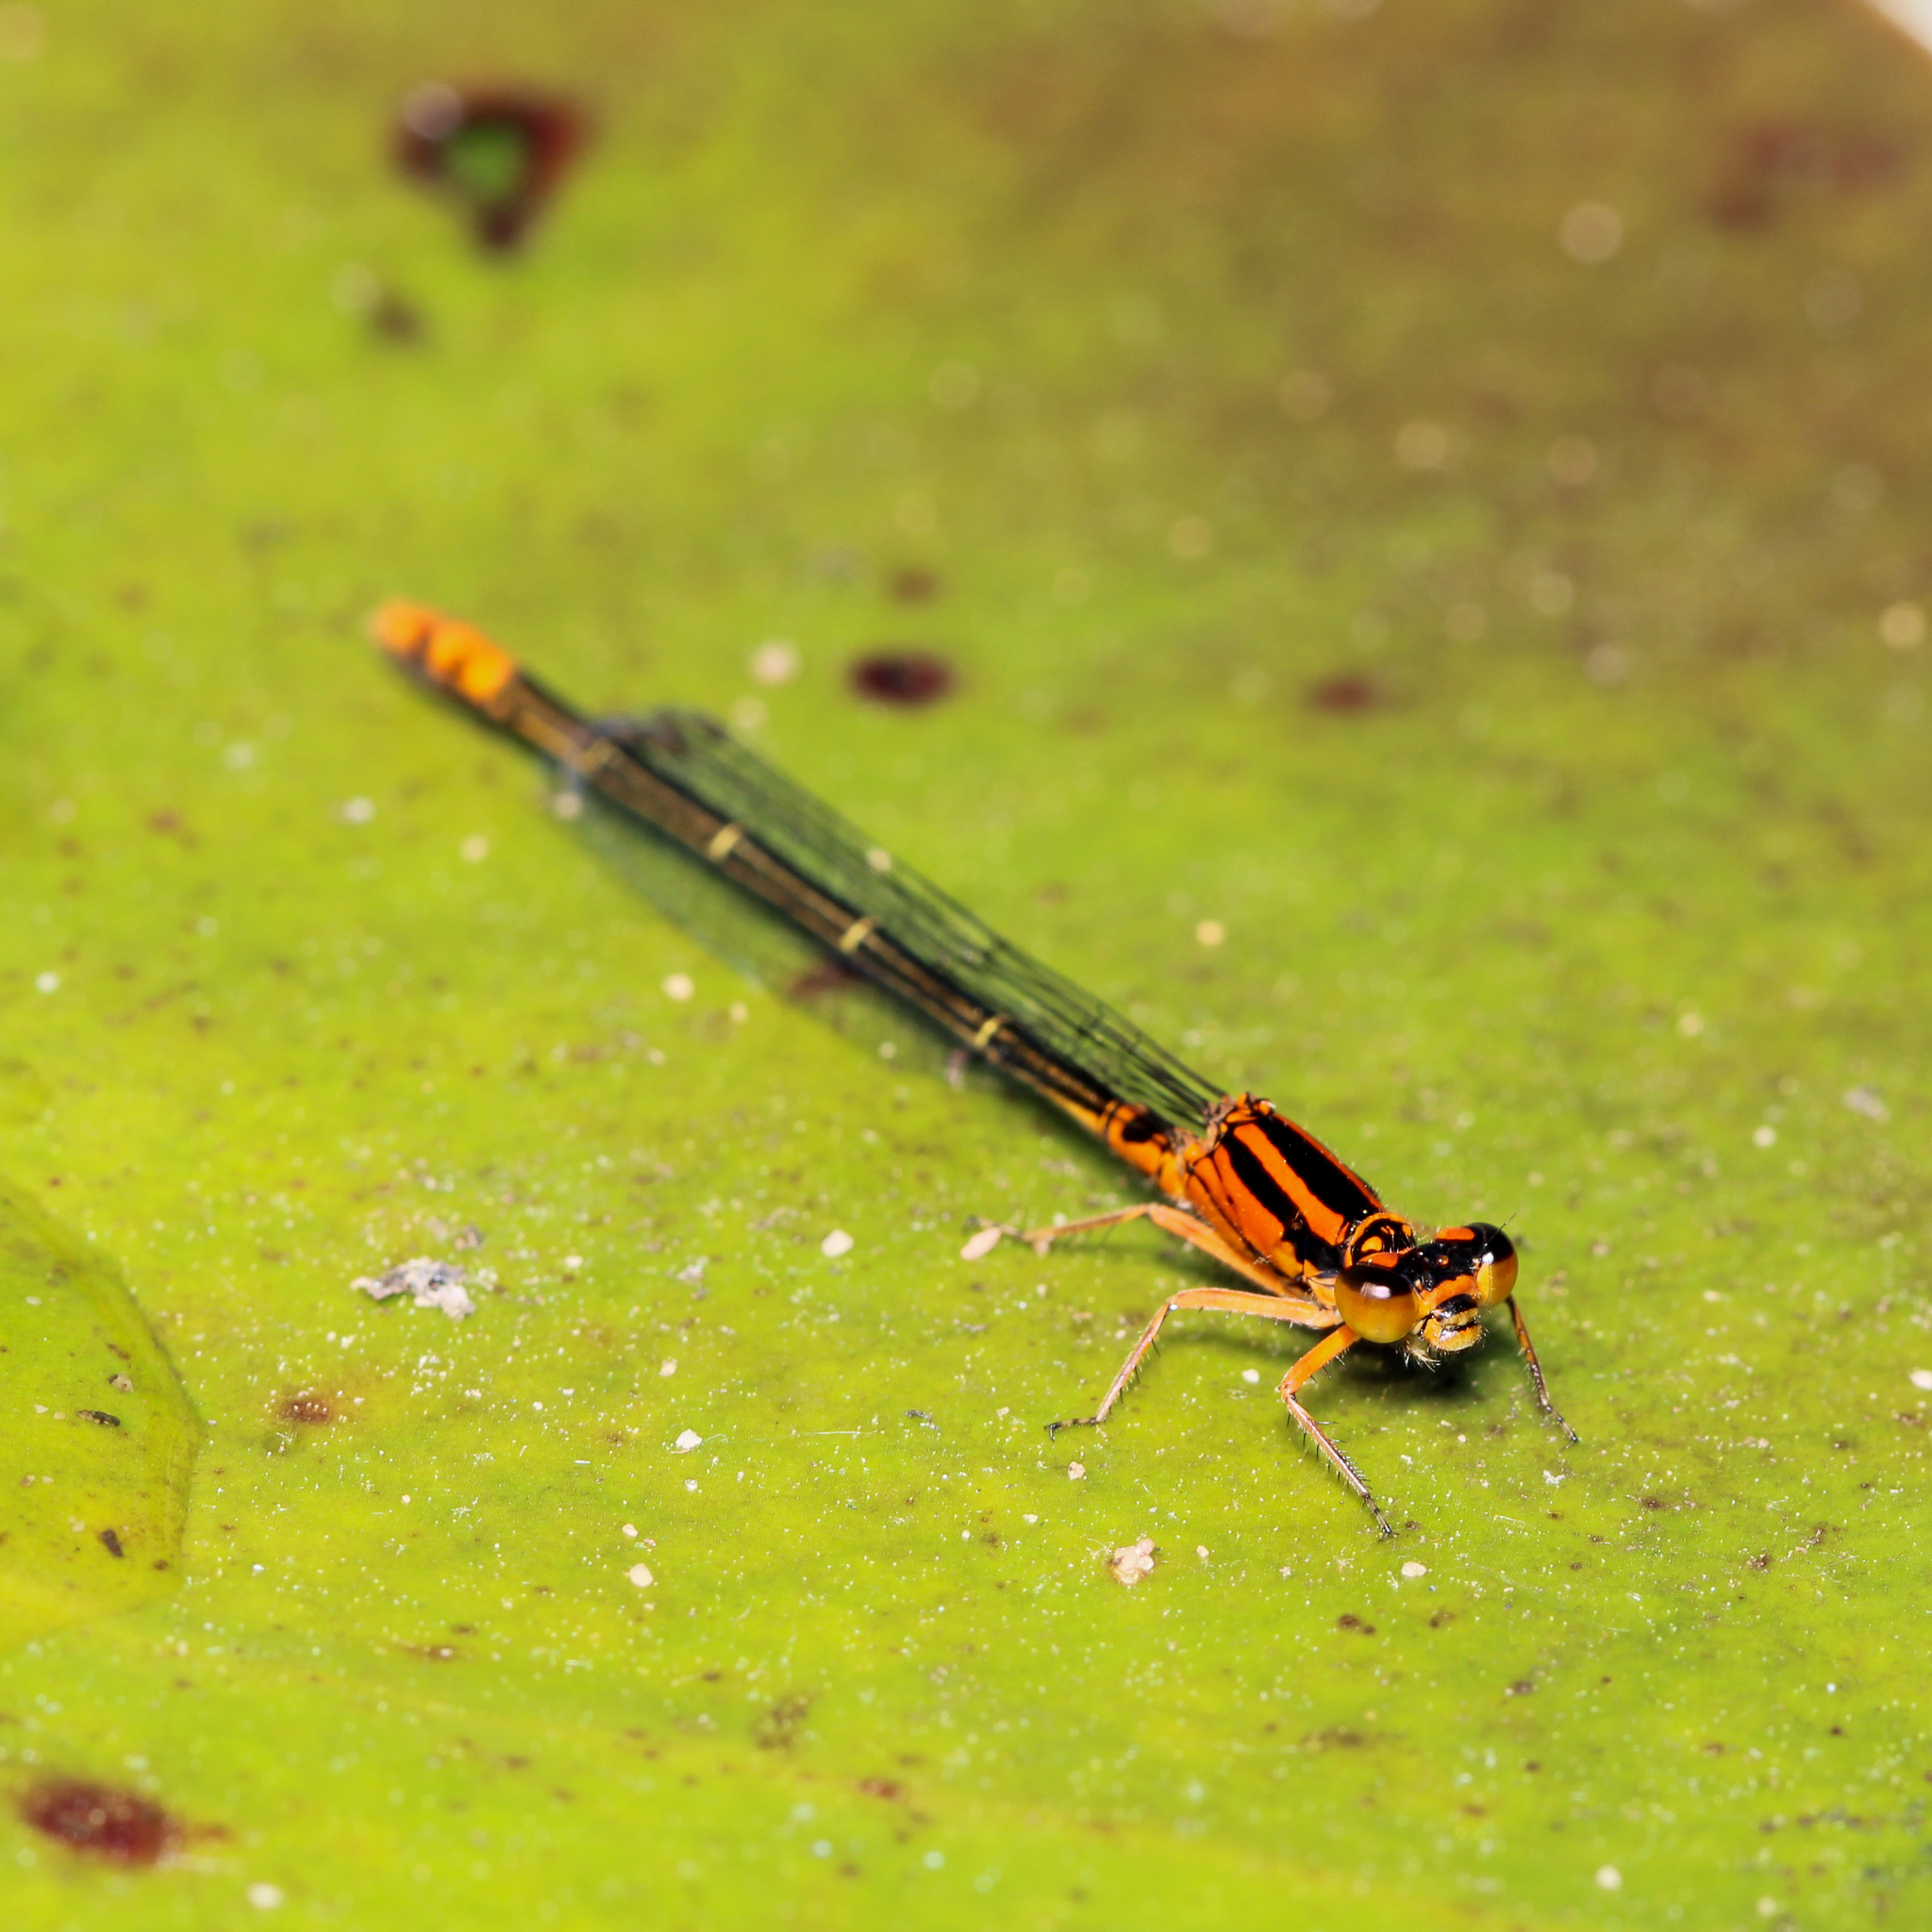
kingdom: Animalia
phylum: Arthropoda
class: Insecta
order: Odonata
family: Coenagrionidae
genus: Ischnura
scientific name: Ischnura kellicotti
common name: Lilypad forktail
